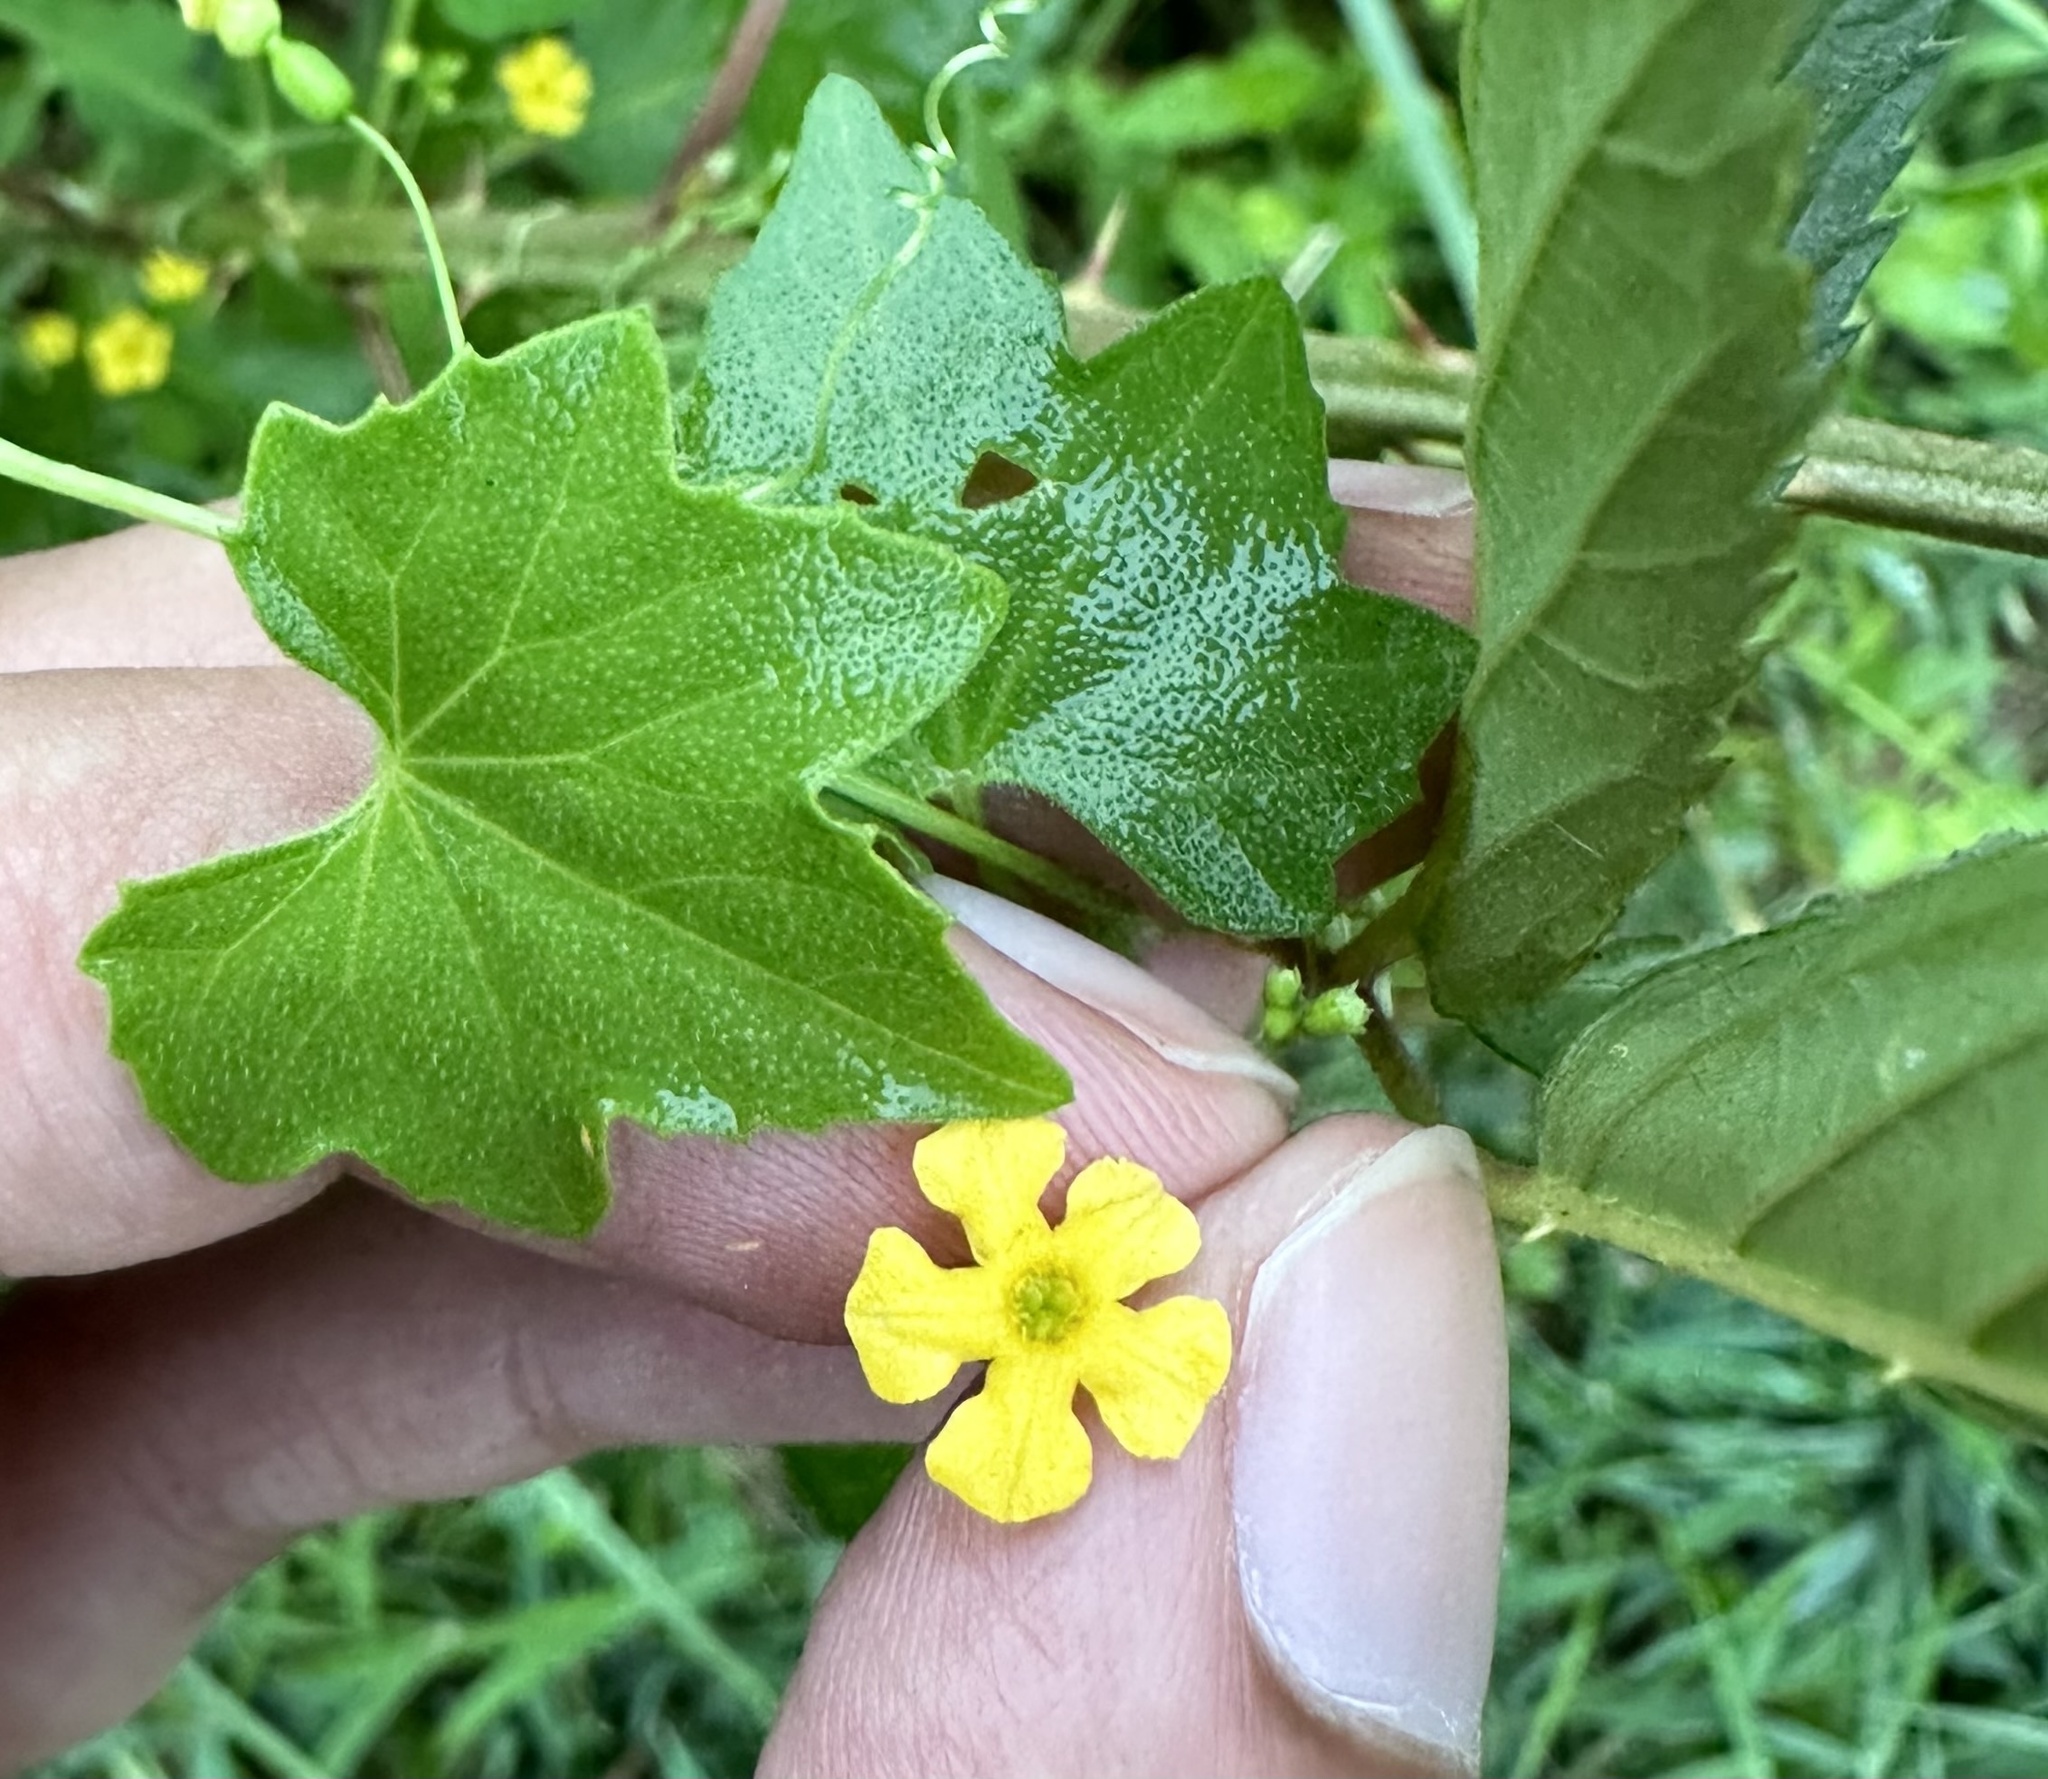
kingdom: Plantae
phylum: Tracheophyta
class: Magnoliopsida
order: Cucurbitales
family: Cucurbitaceae
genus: Melothria
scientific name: Melothria pendula
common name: Creeping-cucumber
